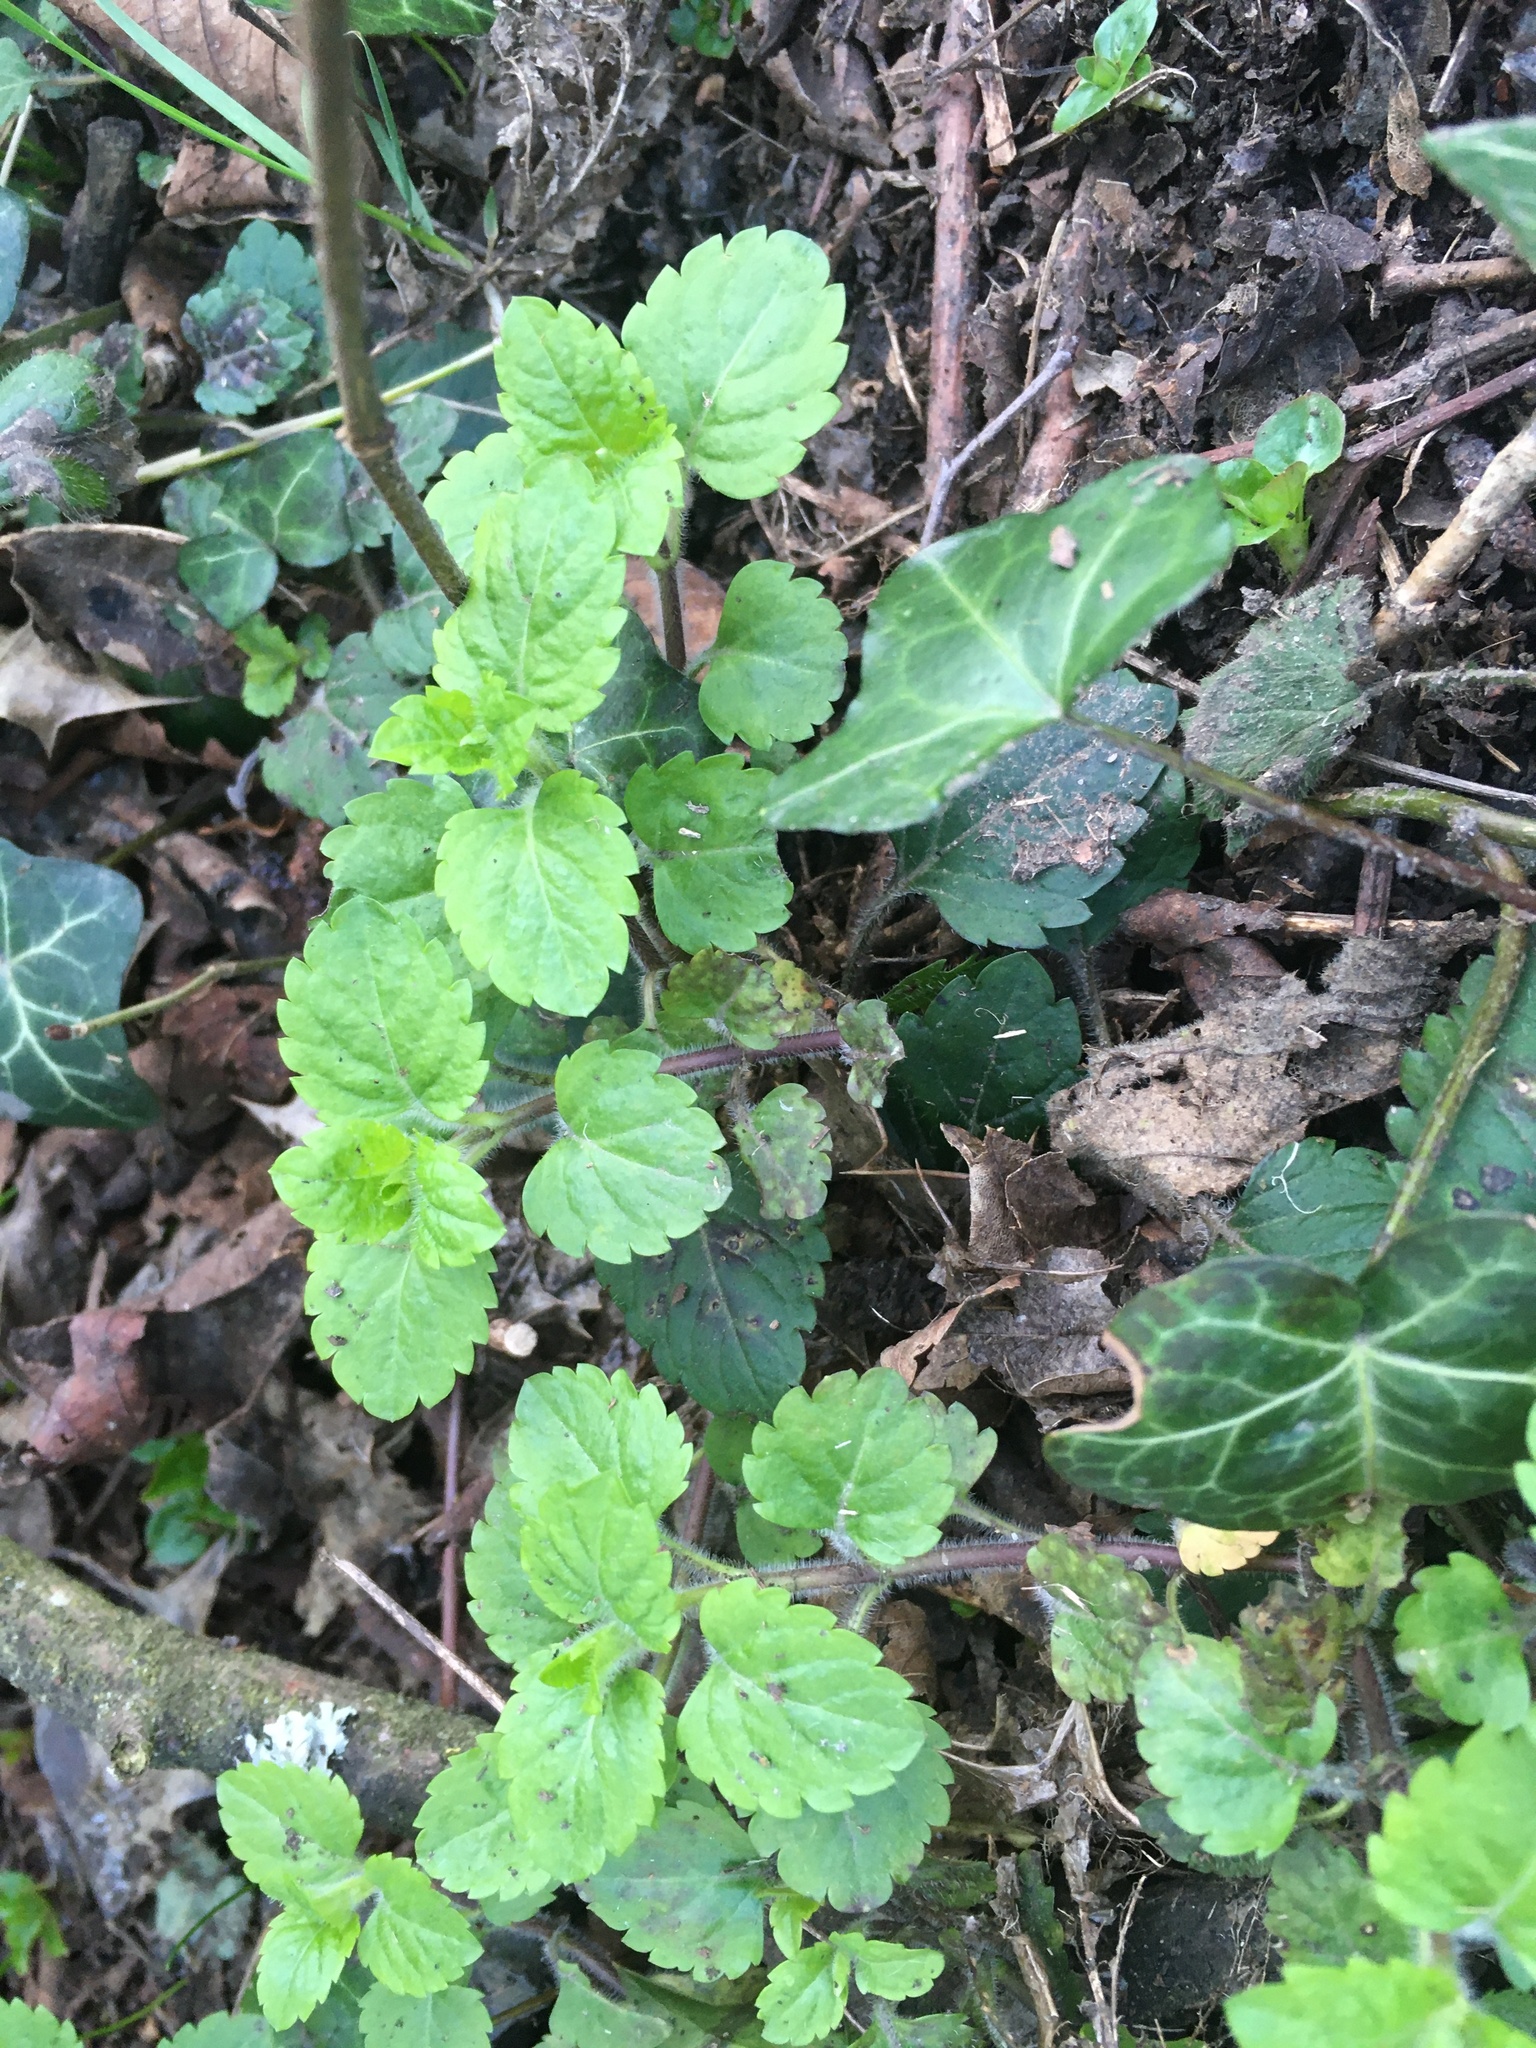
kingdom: Plantae
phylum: Tracheophyta
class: Magnoliopsida
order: Lamiales
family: Plantaginaceae
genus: Veronica
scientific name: Veronica montana
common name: Wood speedwell
